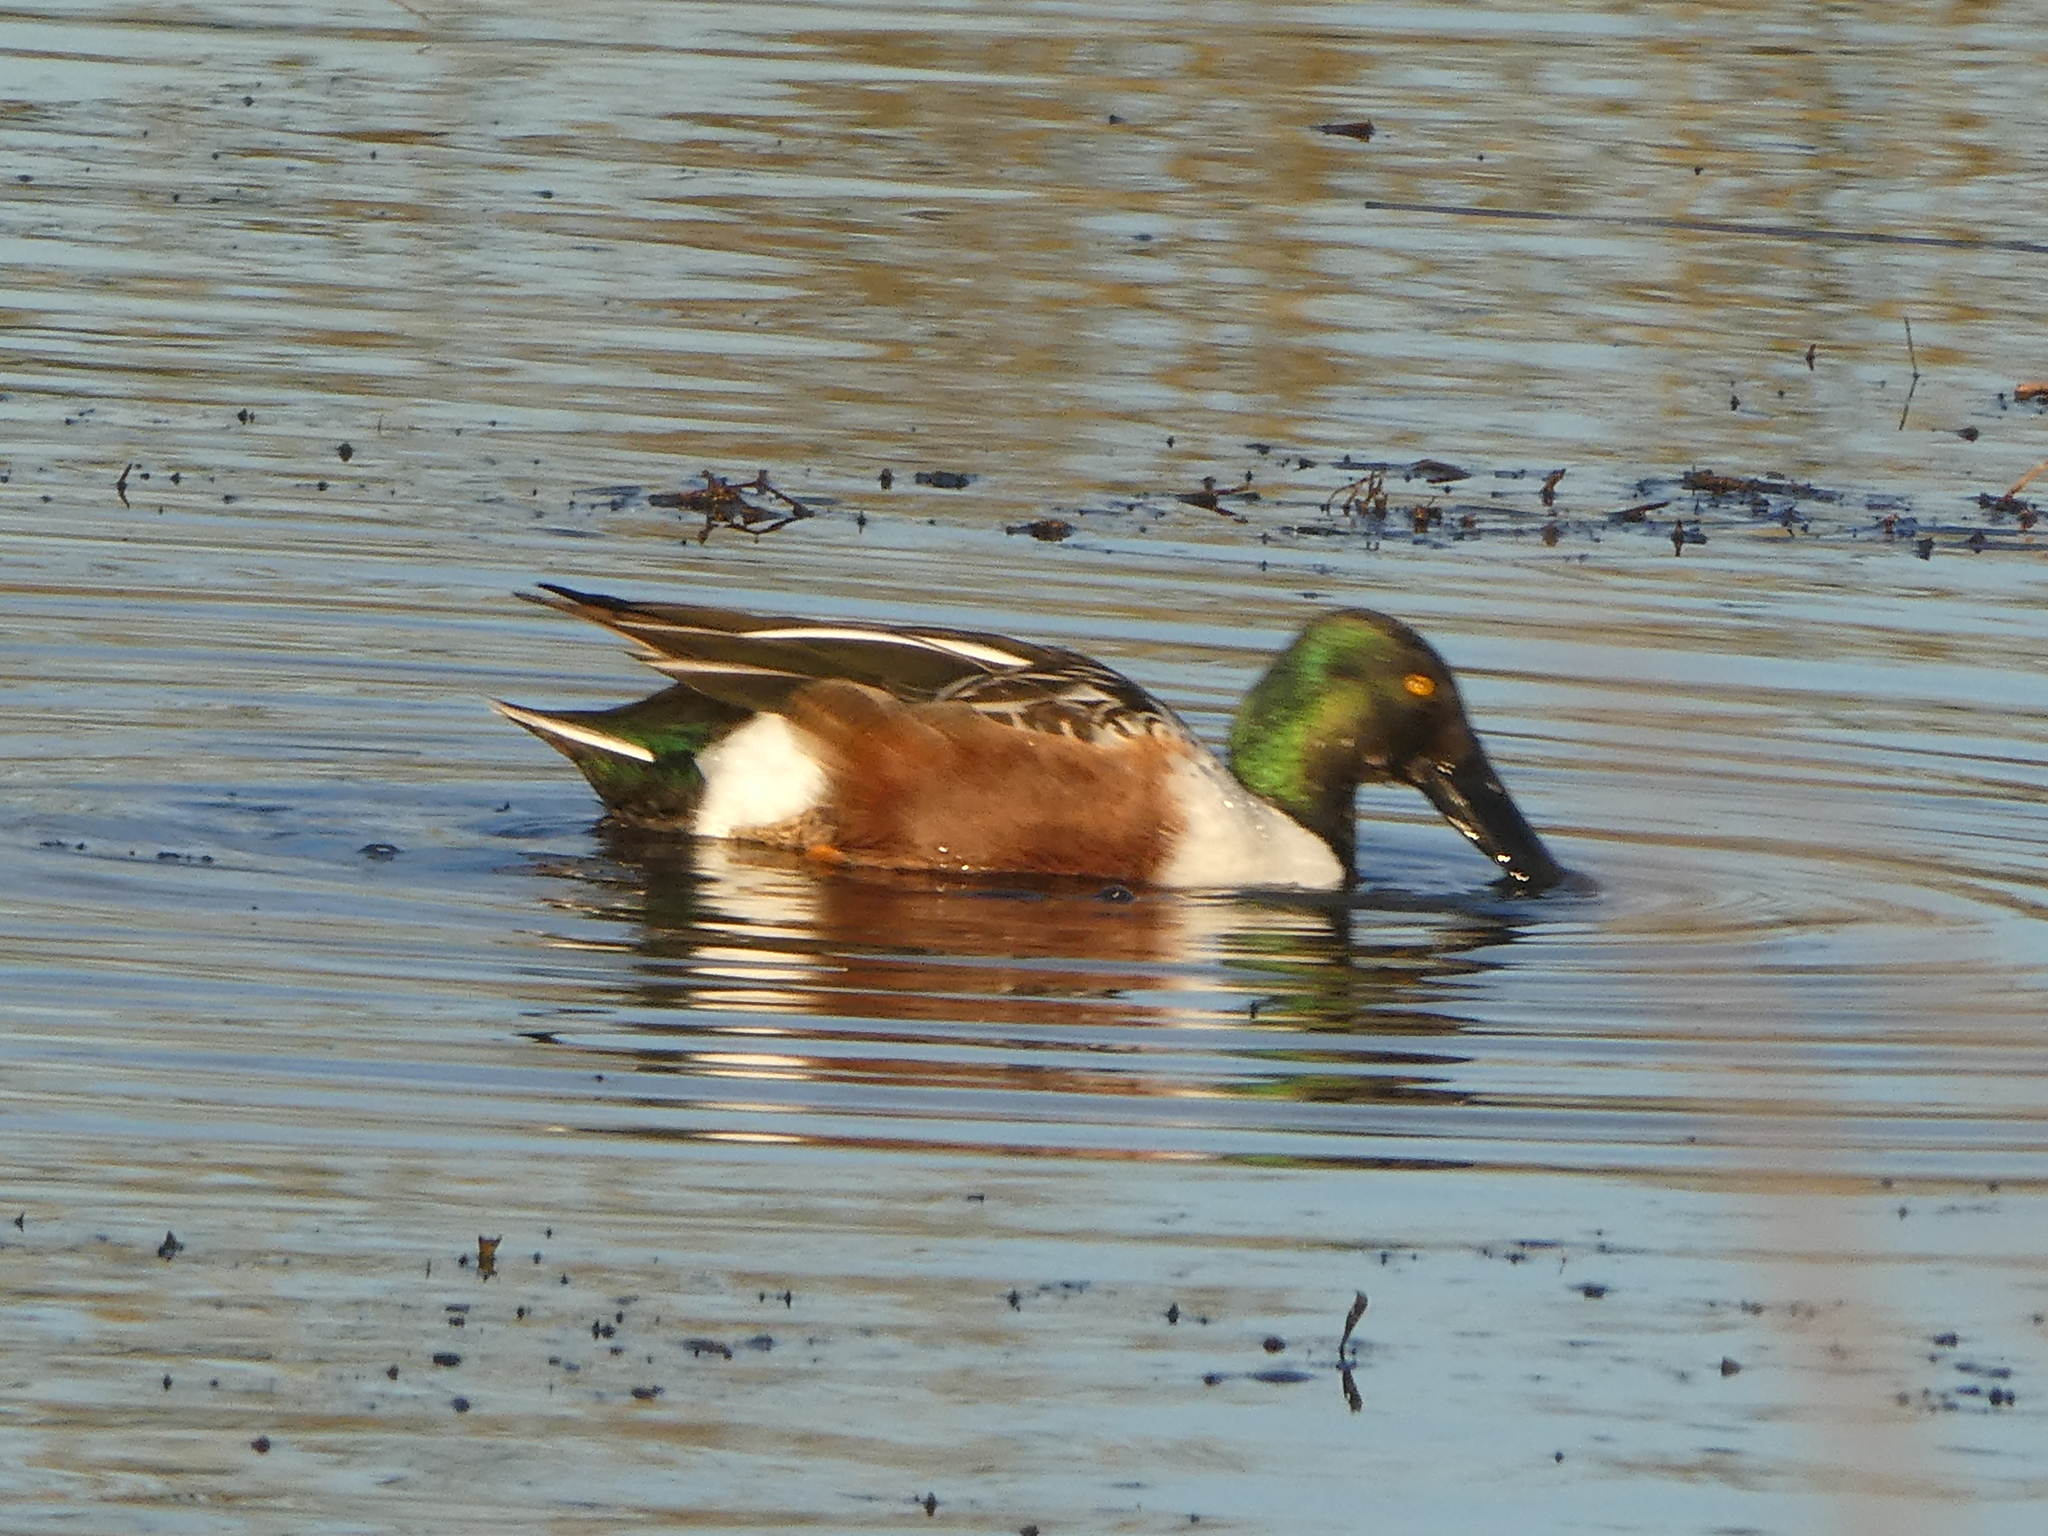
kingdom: Animalia
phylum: Chordata
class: Aves
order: Anseriformes
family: Anatidae
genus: Spatula
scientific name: Spatula clypeata
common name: Northern shoveler
